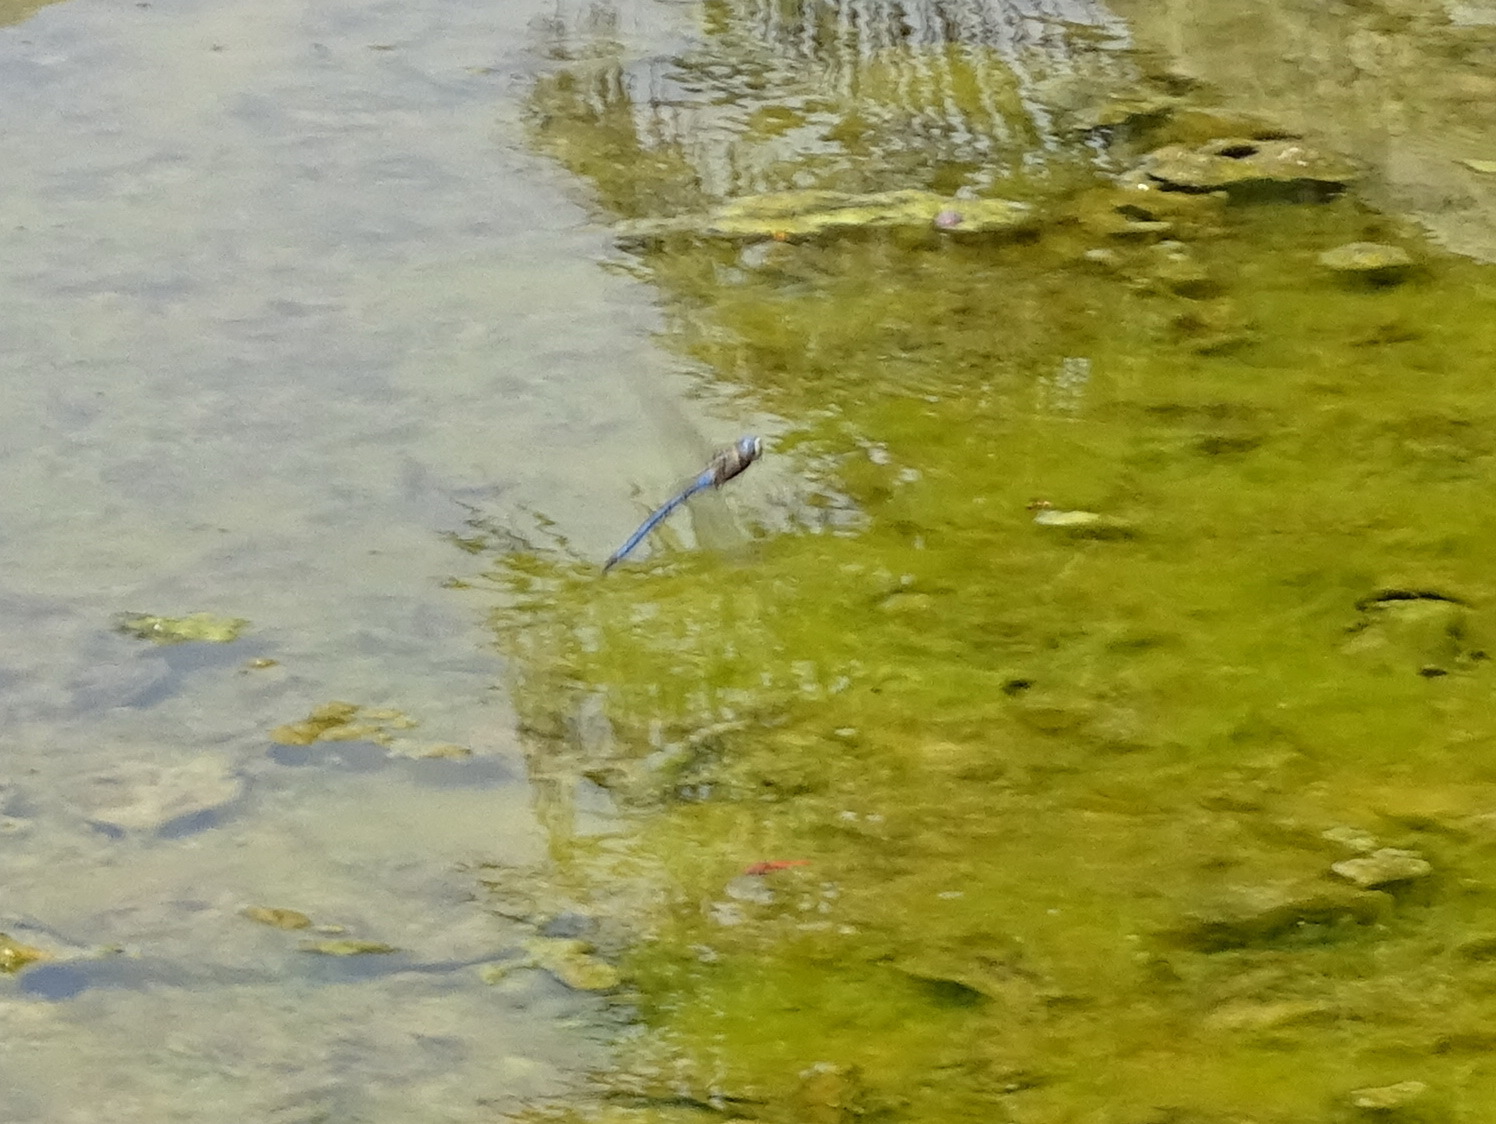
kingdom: Animalia
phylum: Arthropoda
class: Insecta
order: Odonata
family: Aeshnidae
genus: Anax
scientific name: Anax imperator
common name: Emperor dragonfly
